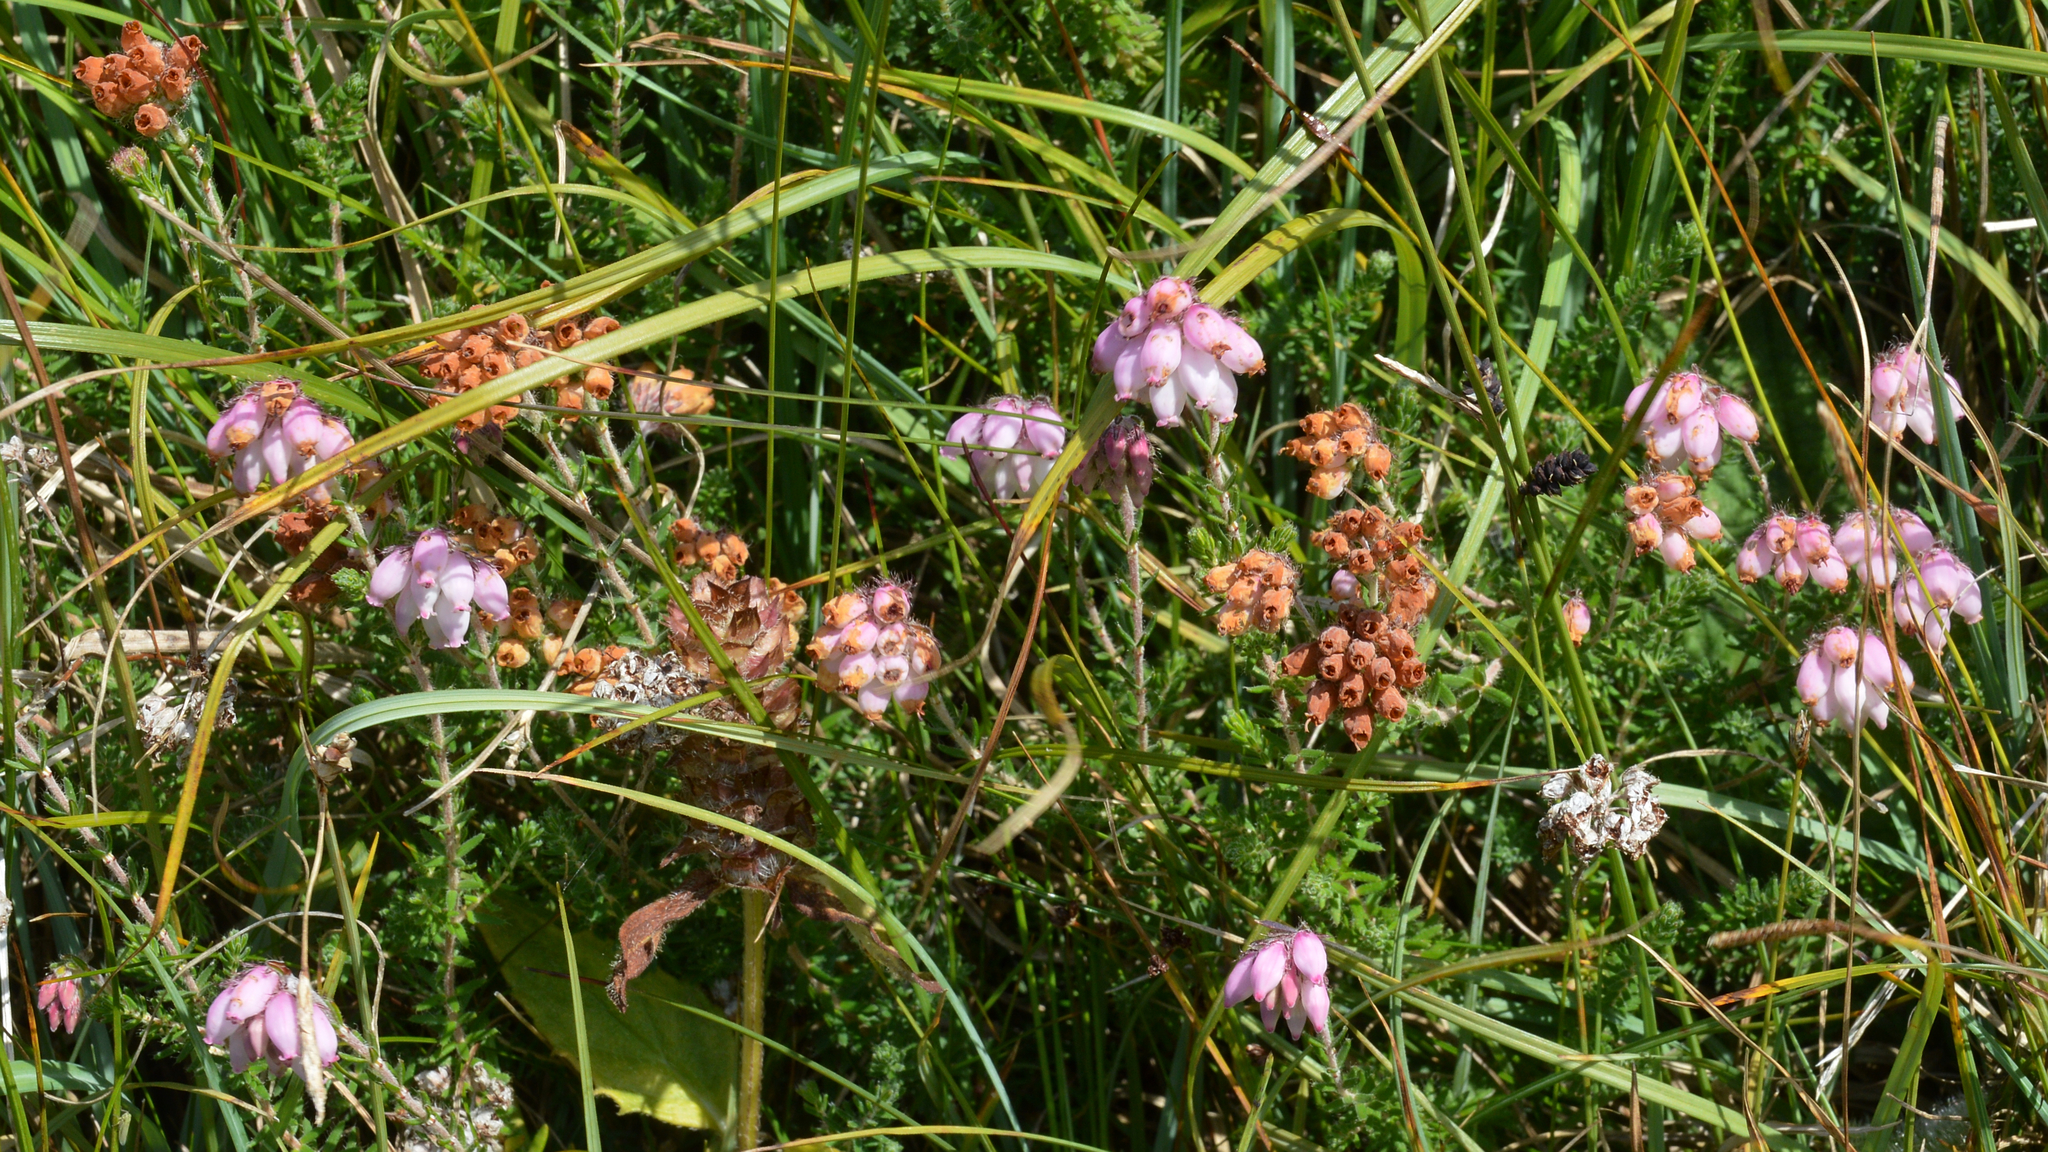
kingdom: Plantae
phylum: Tracheophyta
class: Magnoliopsida
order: Ericales
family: Ericaceae
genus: Erica
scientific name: Erica tetralix
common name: Cross-leaved heath
